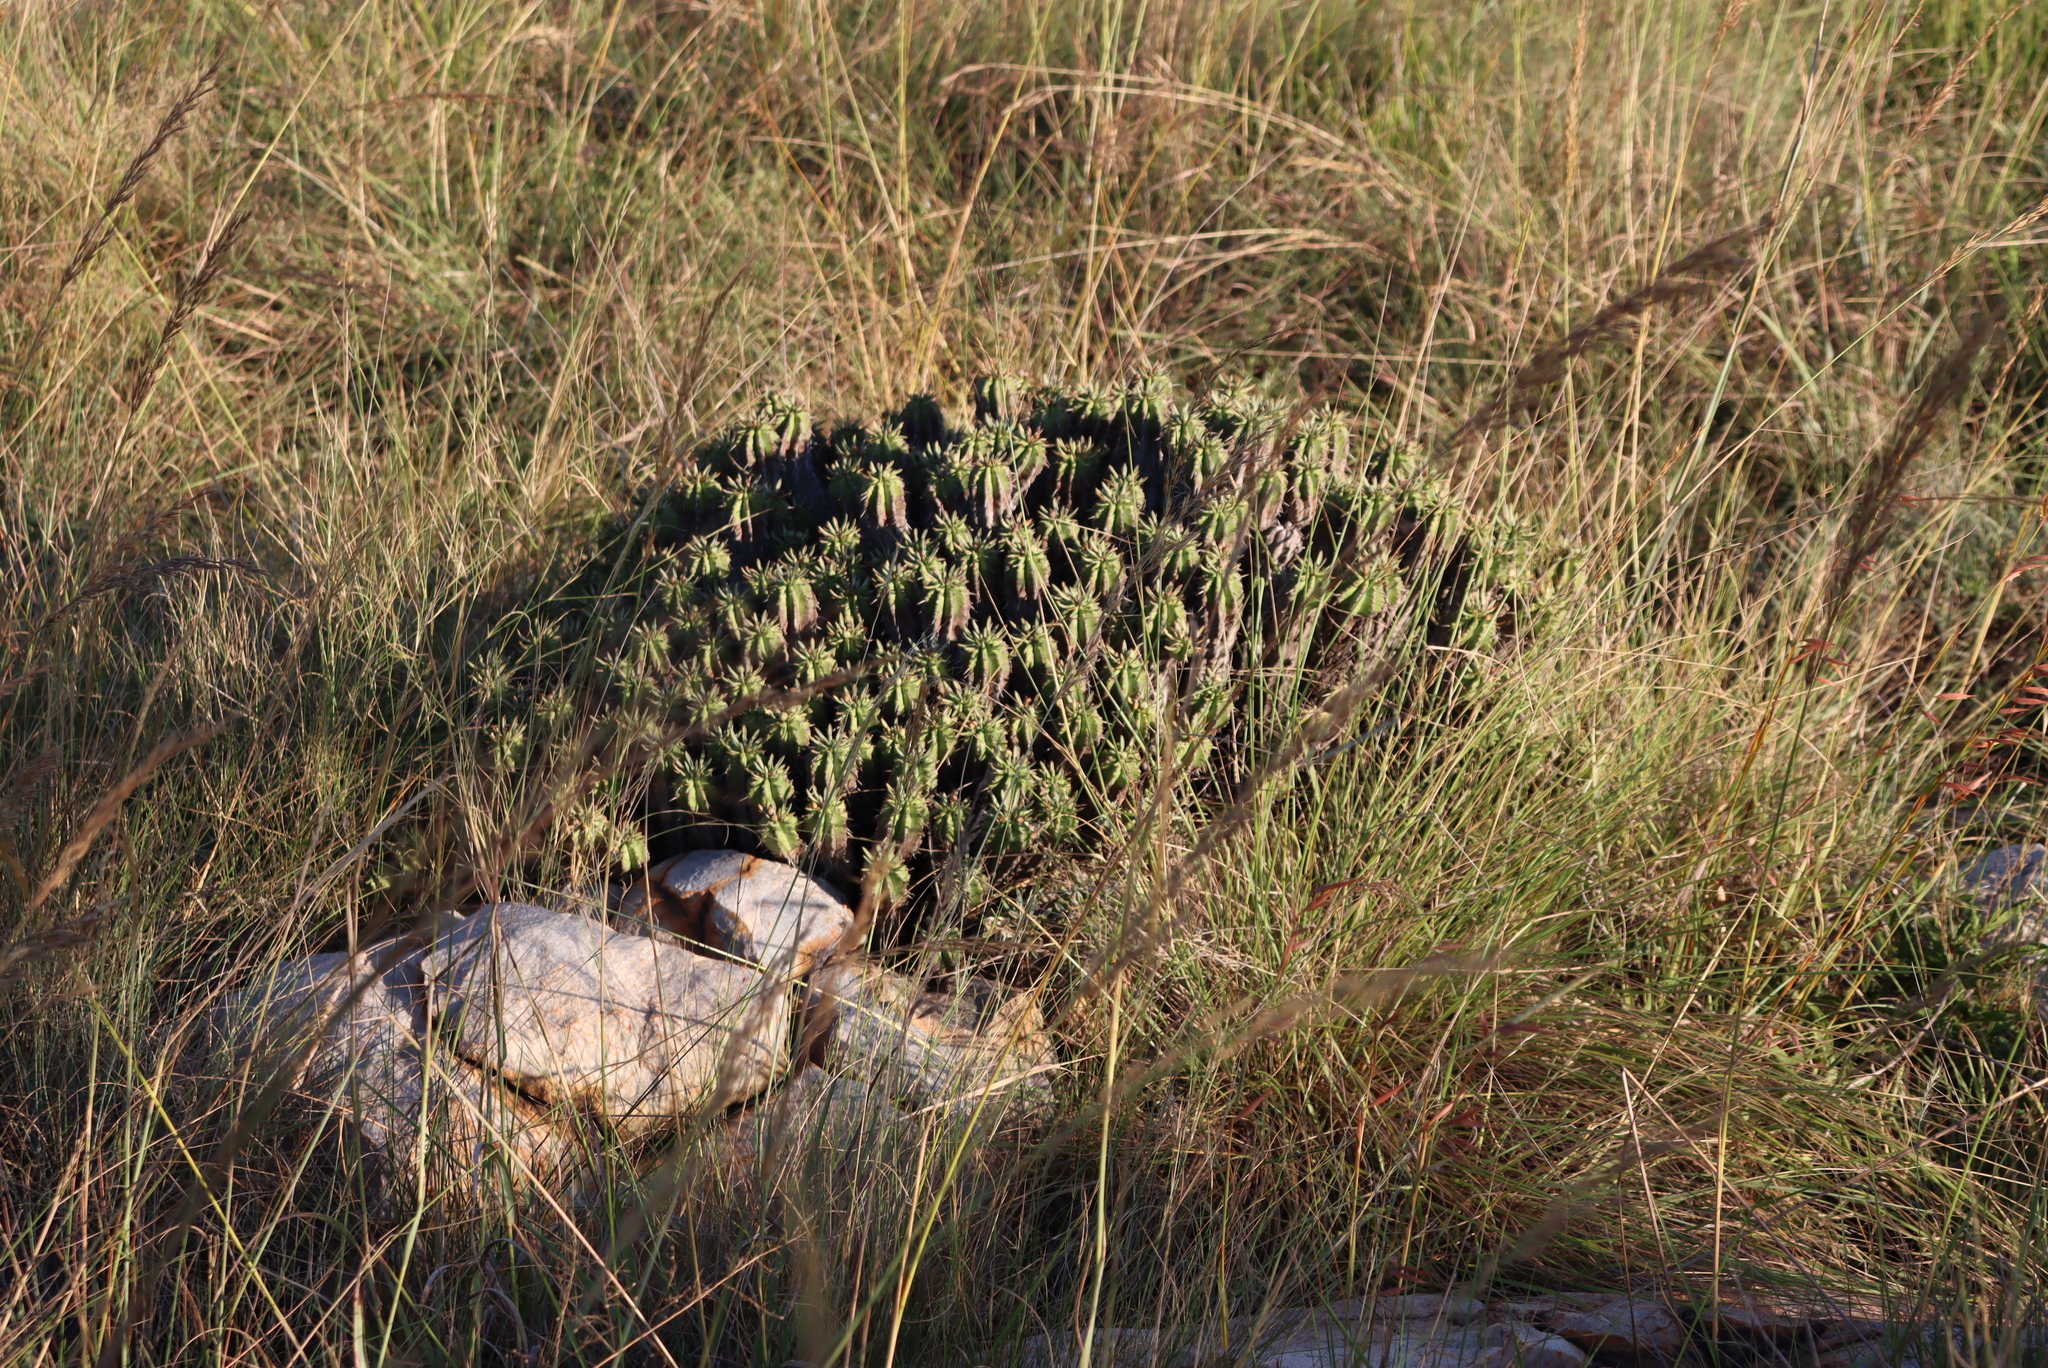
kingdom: Plantae
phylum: Tracheophyta
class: Magnoliopsida
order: Malpighiales
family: Euphorbiaceae
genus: Euphorbia
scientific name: Euphorbia pulvinata
